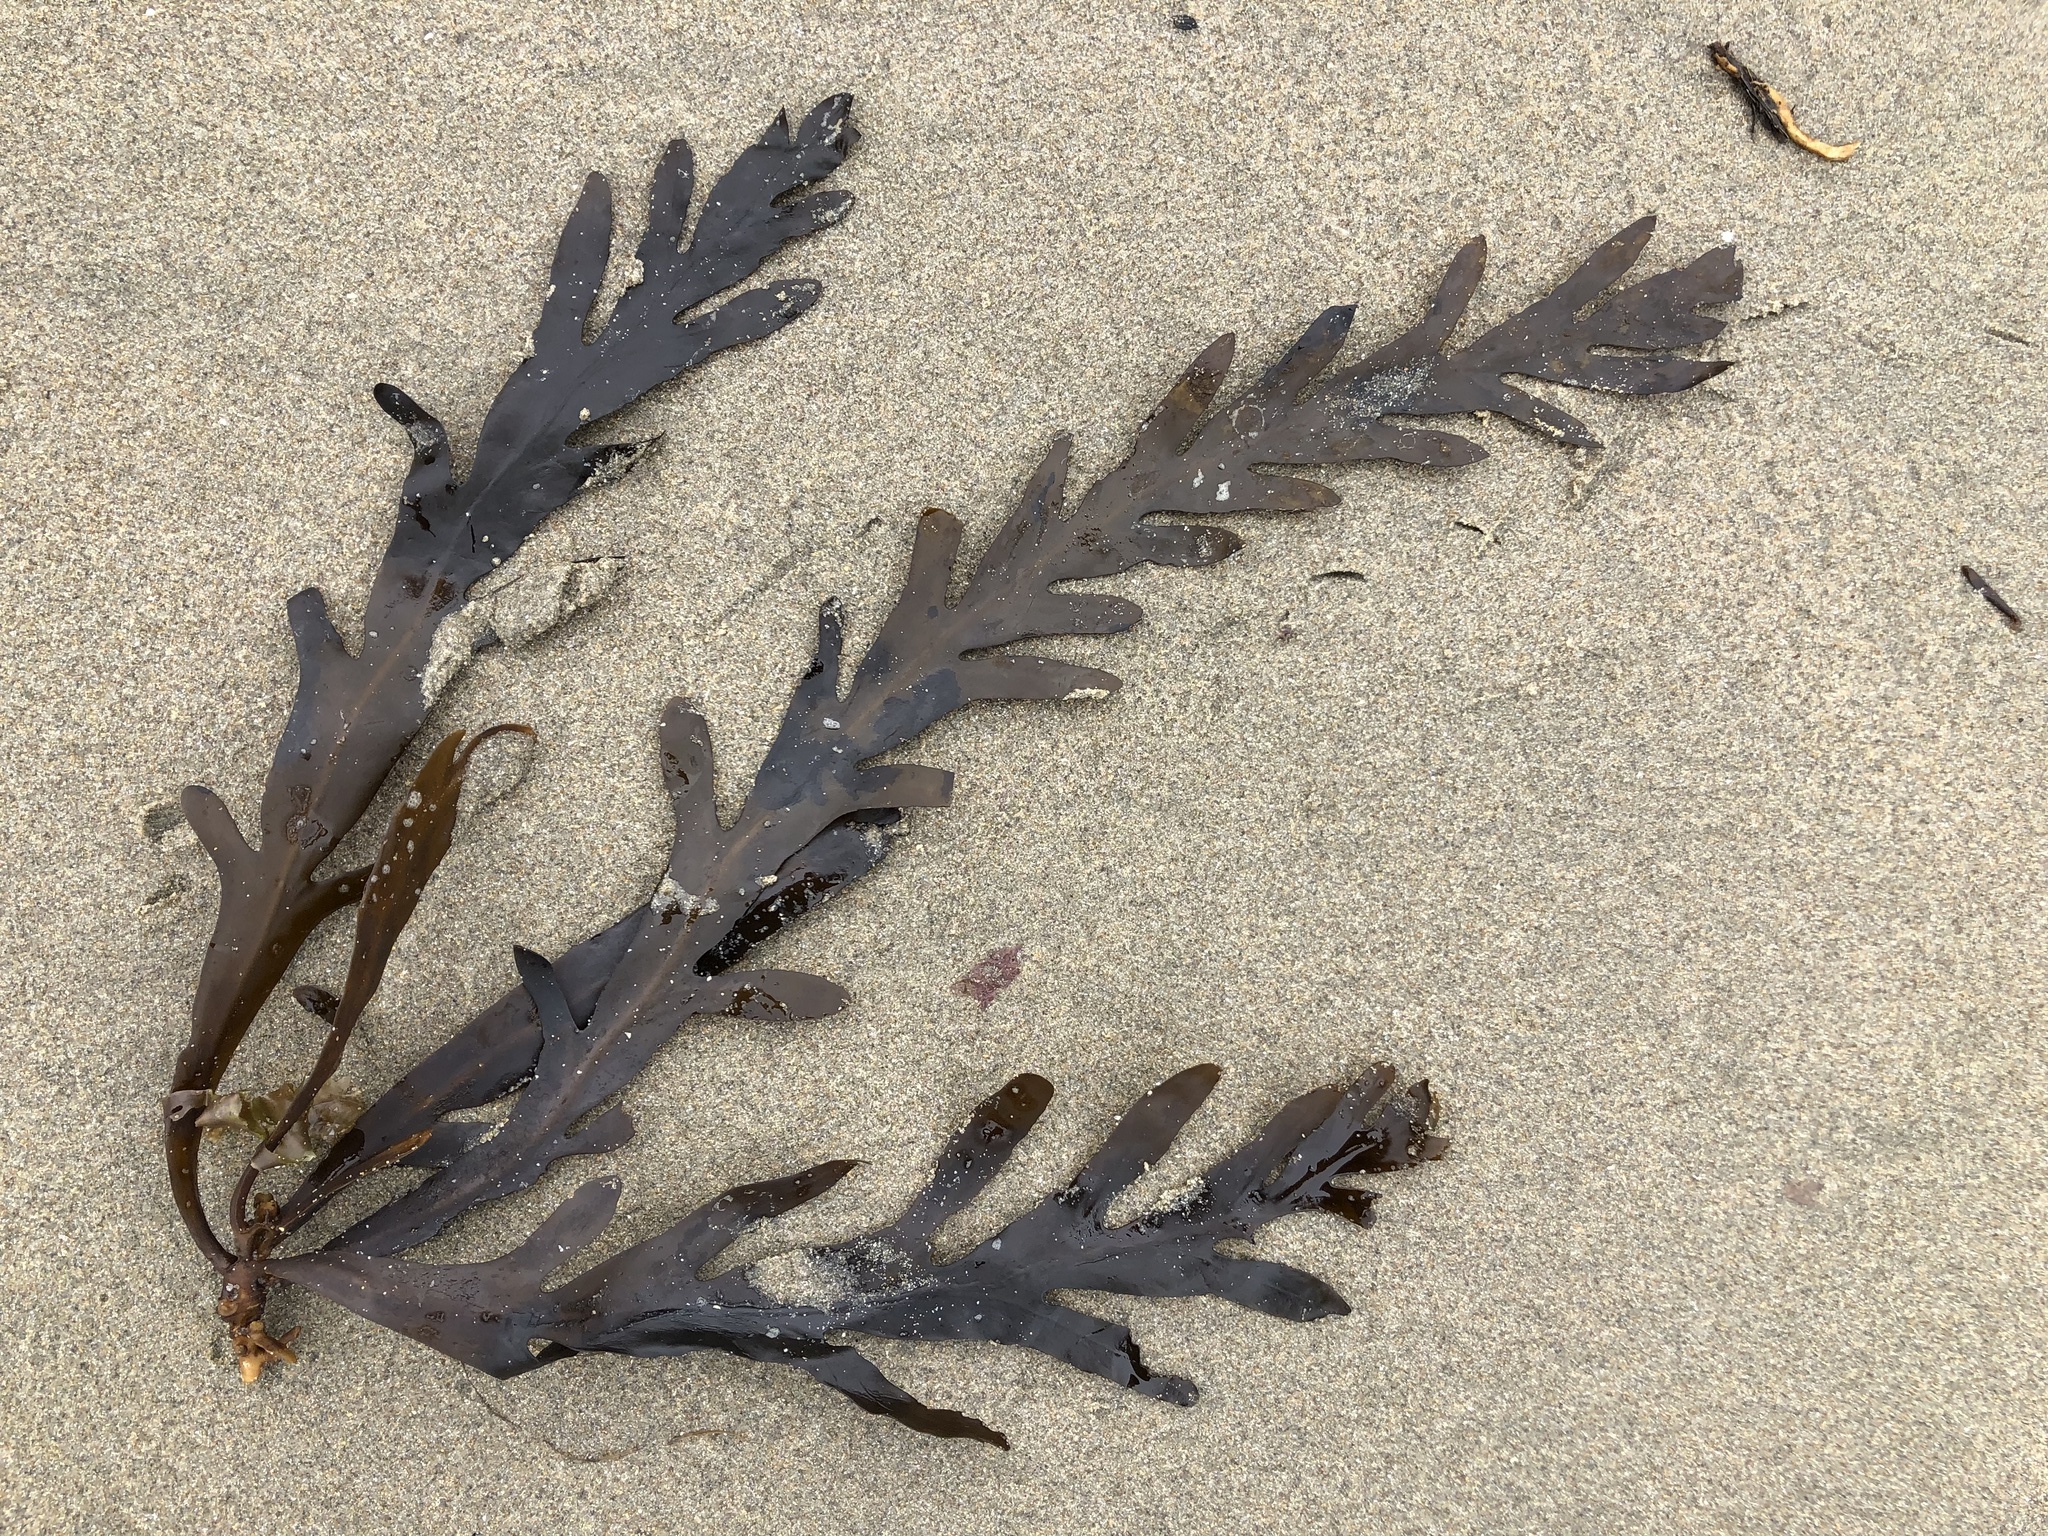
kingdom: Chromista
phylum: Ochrophyta
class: Phaeophyceae
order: Fucales
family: Sargassaceae
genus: Stephanocystis
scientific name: Stephanocystis
